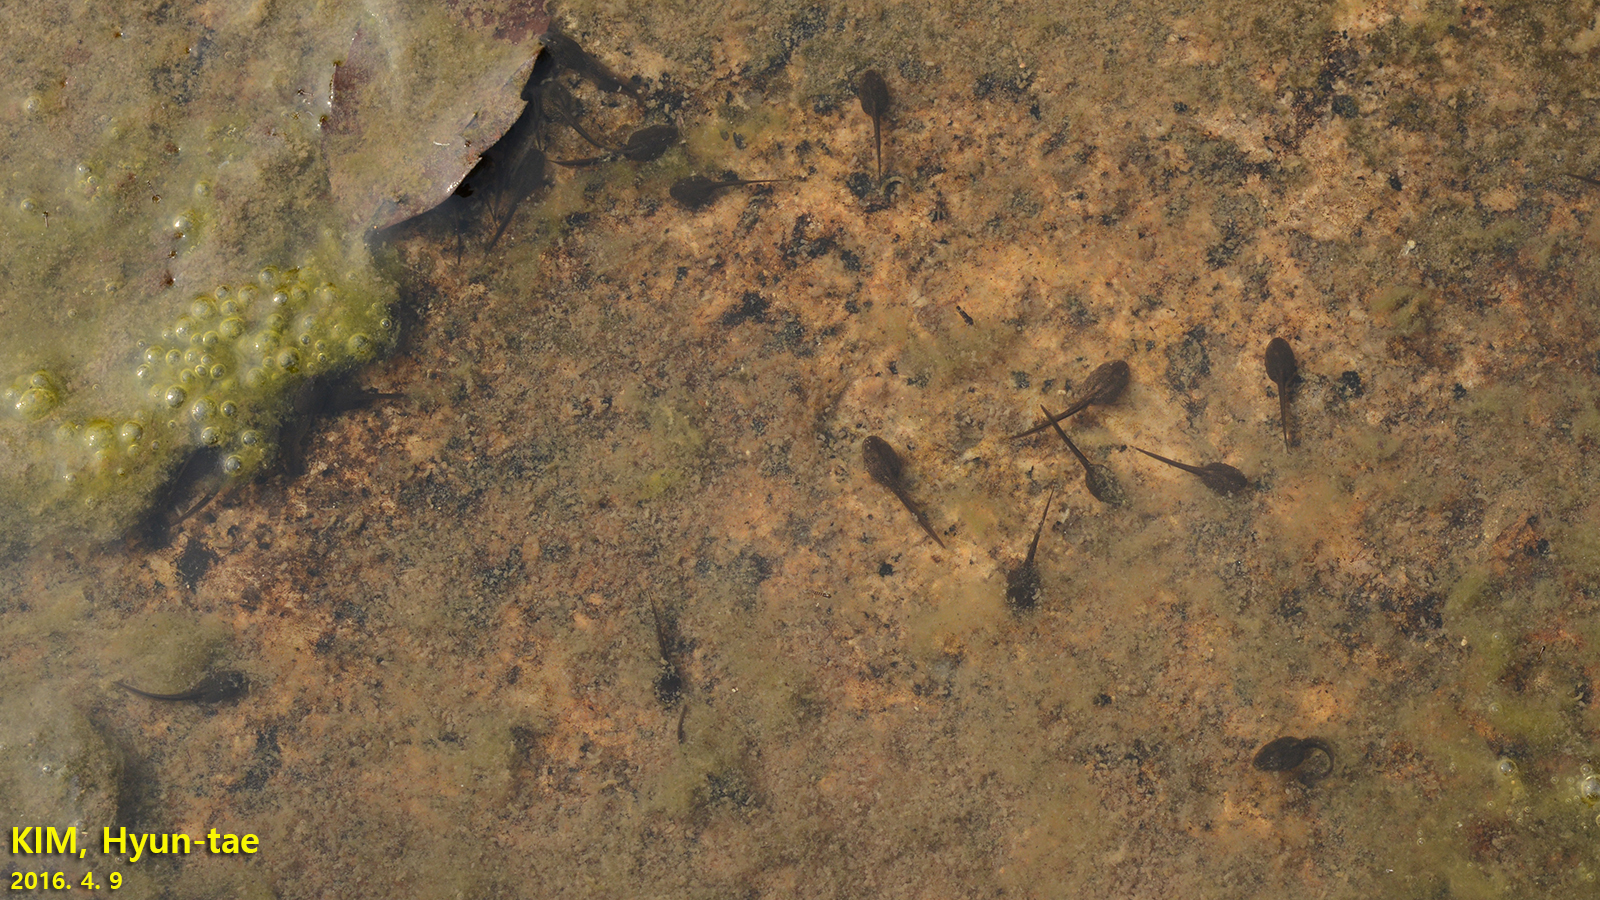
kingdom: Animalia
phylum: Chordata
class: Amphibia
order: Anura
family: Ranidae
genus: Rana
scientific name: Rana uenoi
